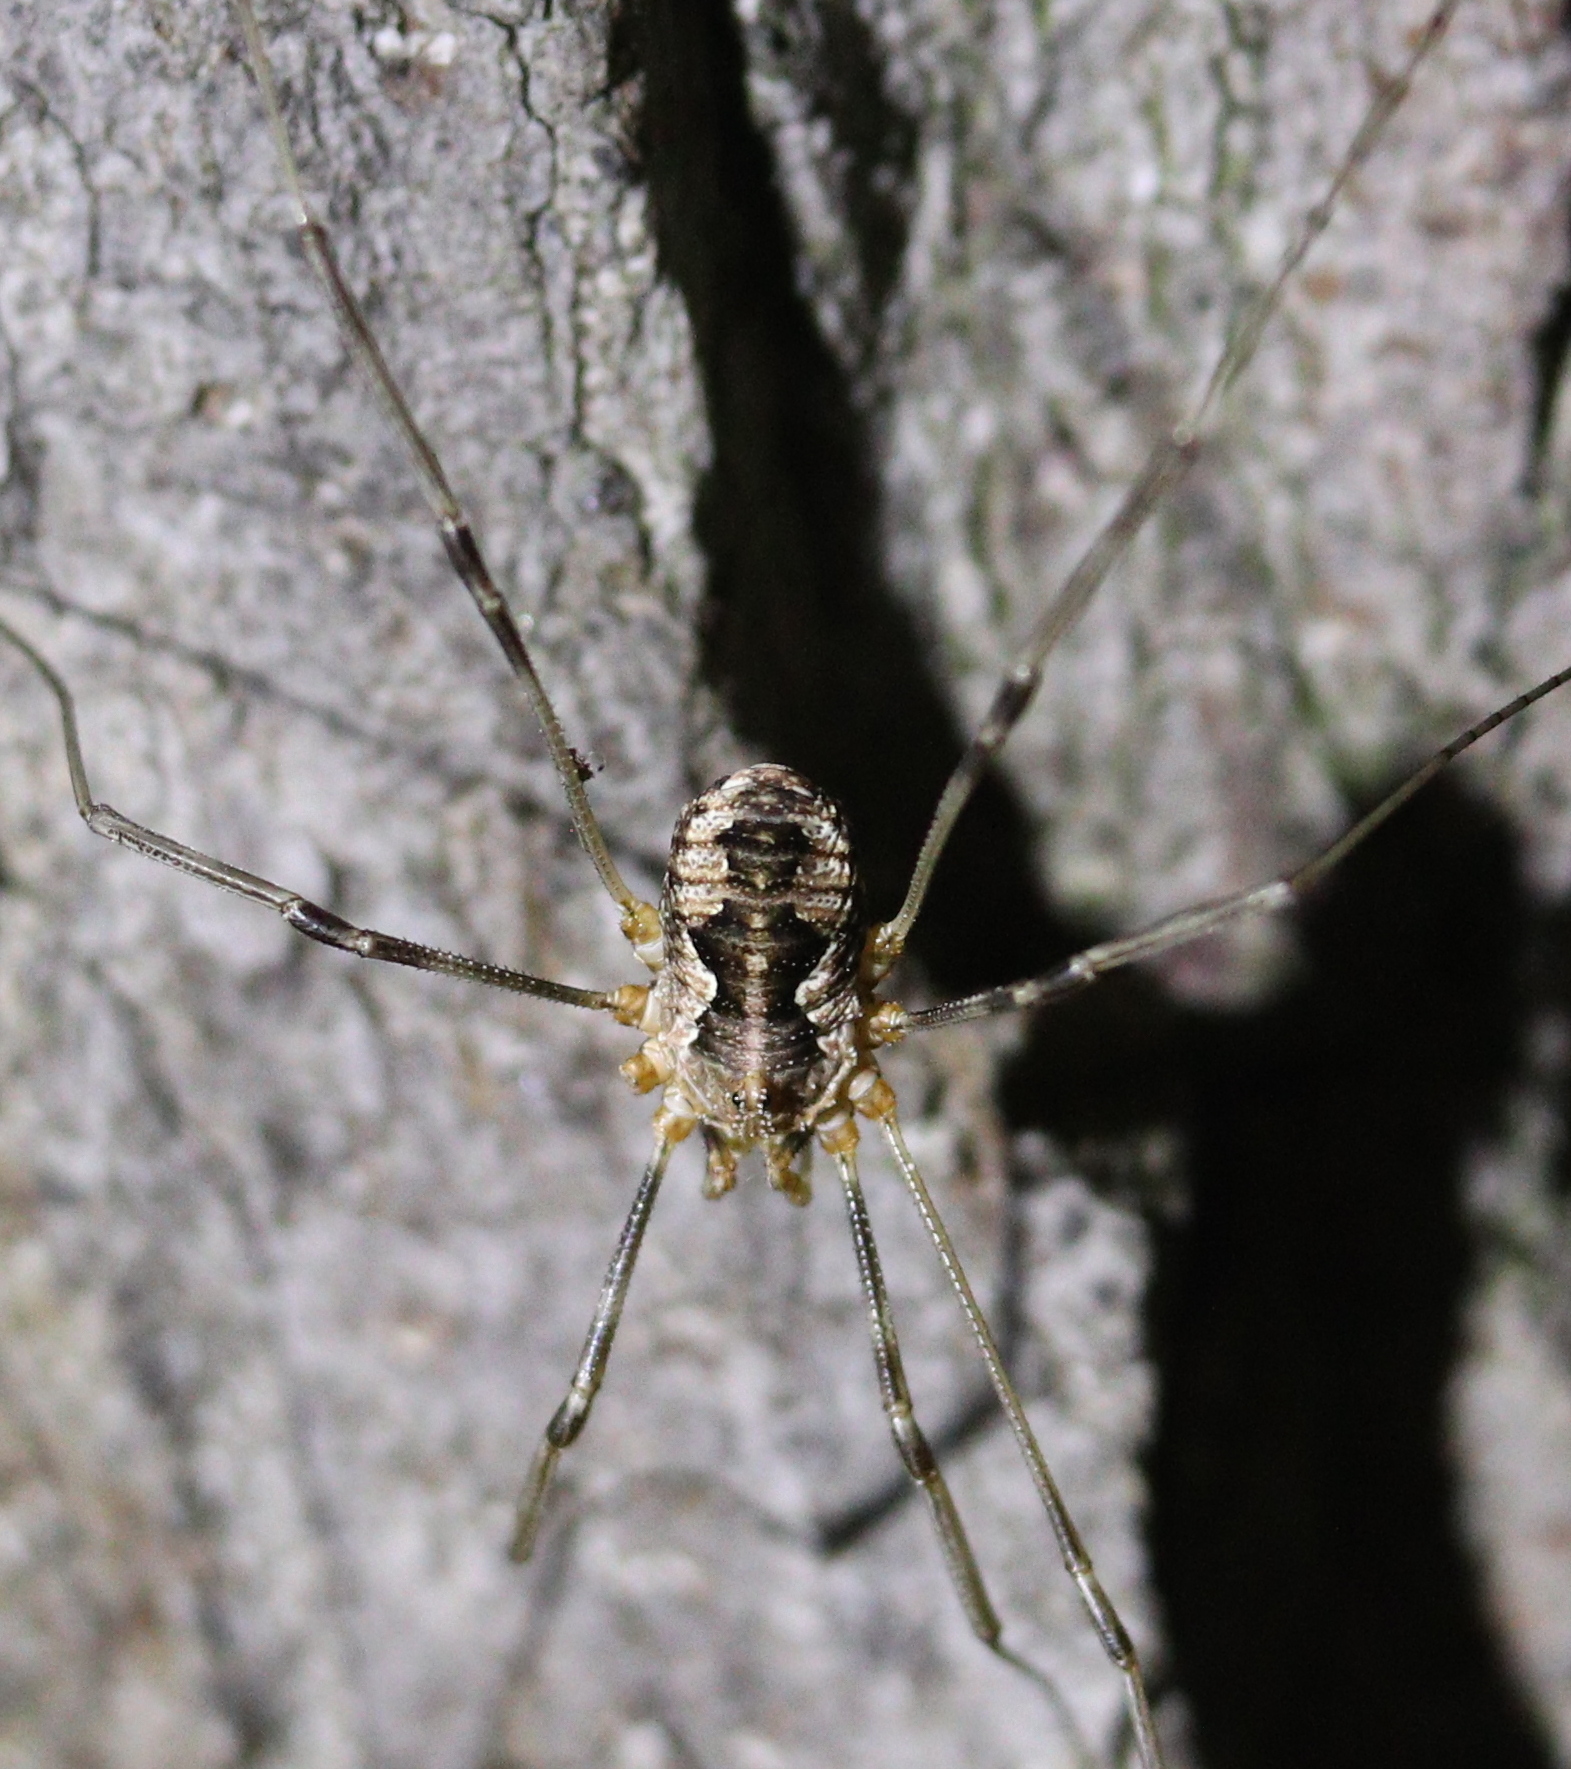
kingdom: Animalia
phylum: Arthropoda
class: Arachnida
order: Opiliones
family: Phalangiidae
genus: Phalangium
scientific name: Phalangium opilio
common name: Daddy longleg
